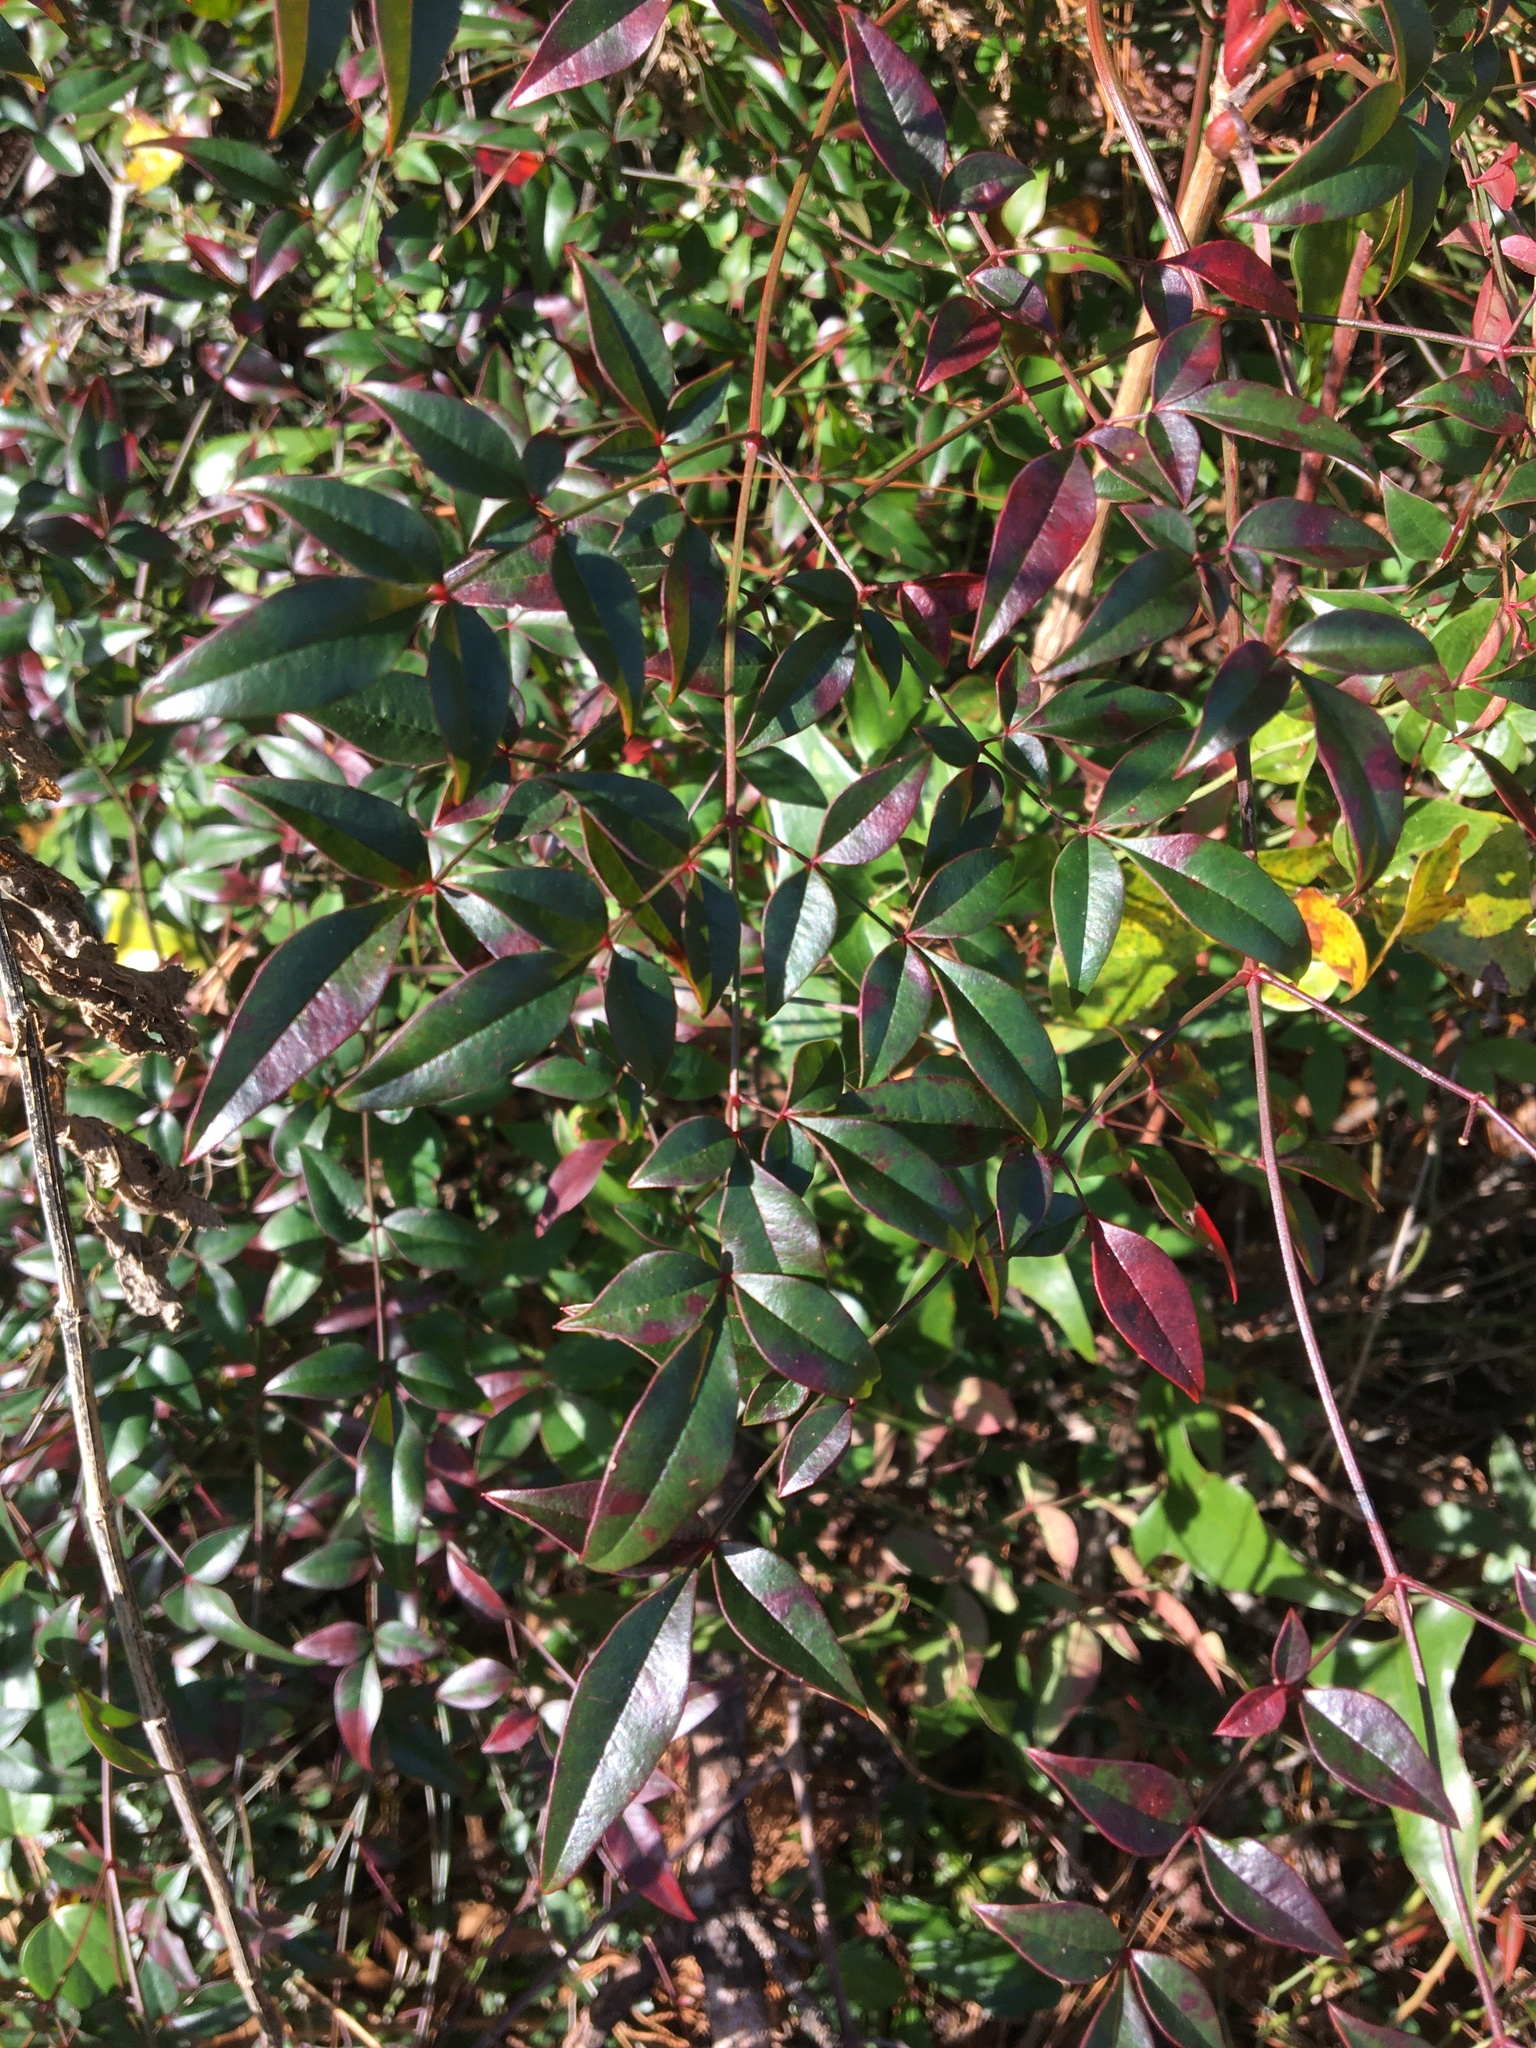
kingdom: Plantae
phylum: Tracheophyta
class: Magnoliopsida
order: Ranunculales
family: Berberidaceae
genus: Nandina
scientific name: Nandina domestica
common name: Sacred bamboo
